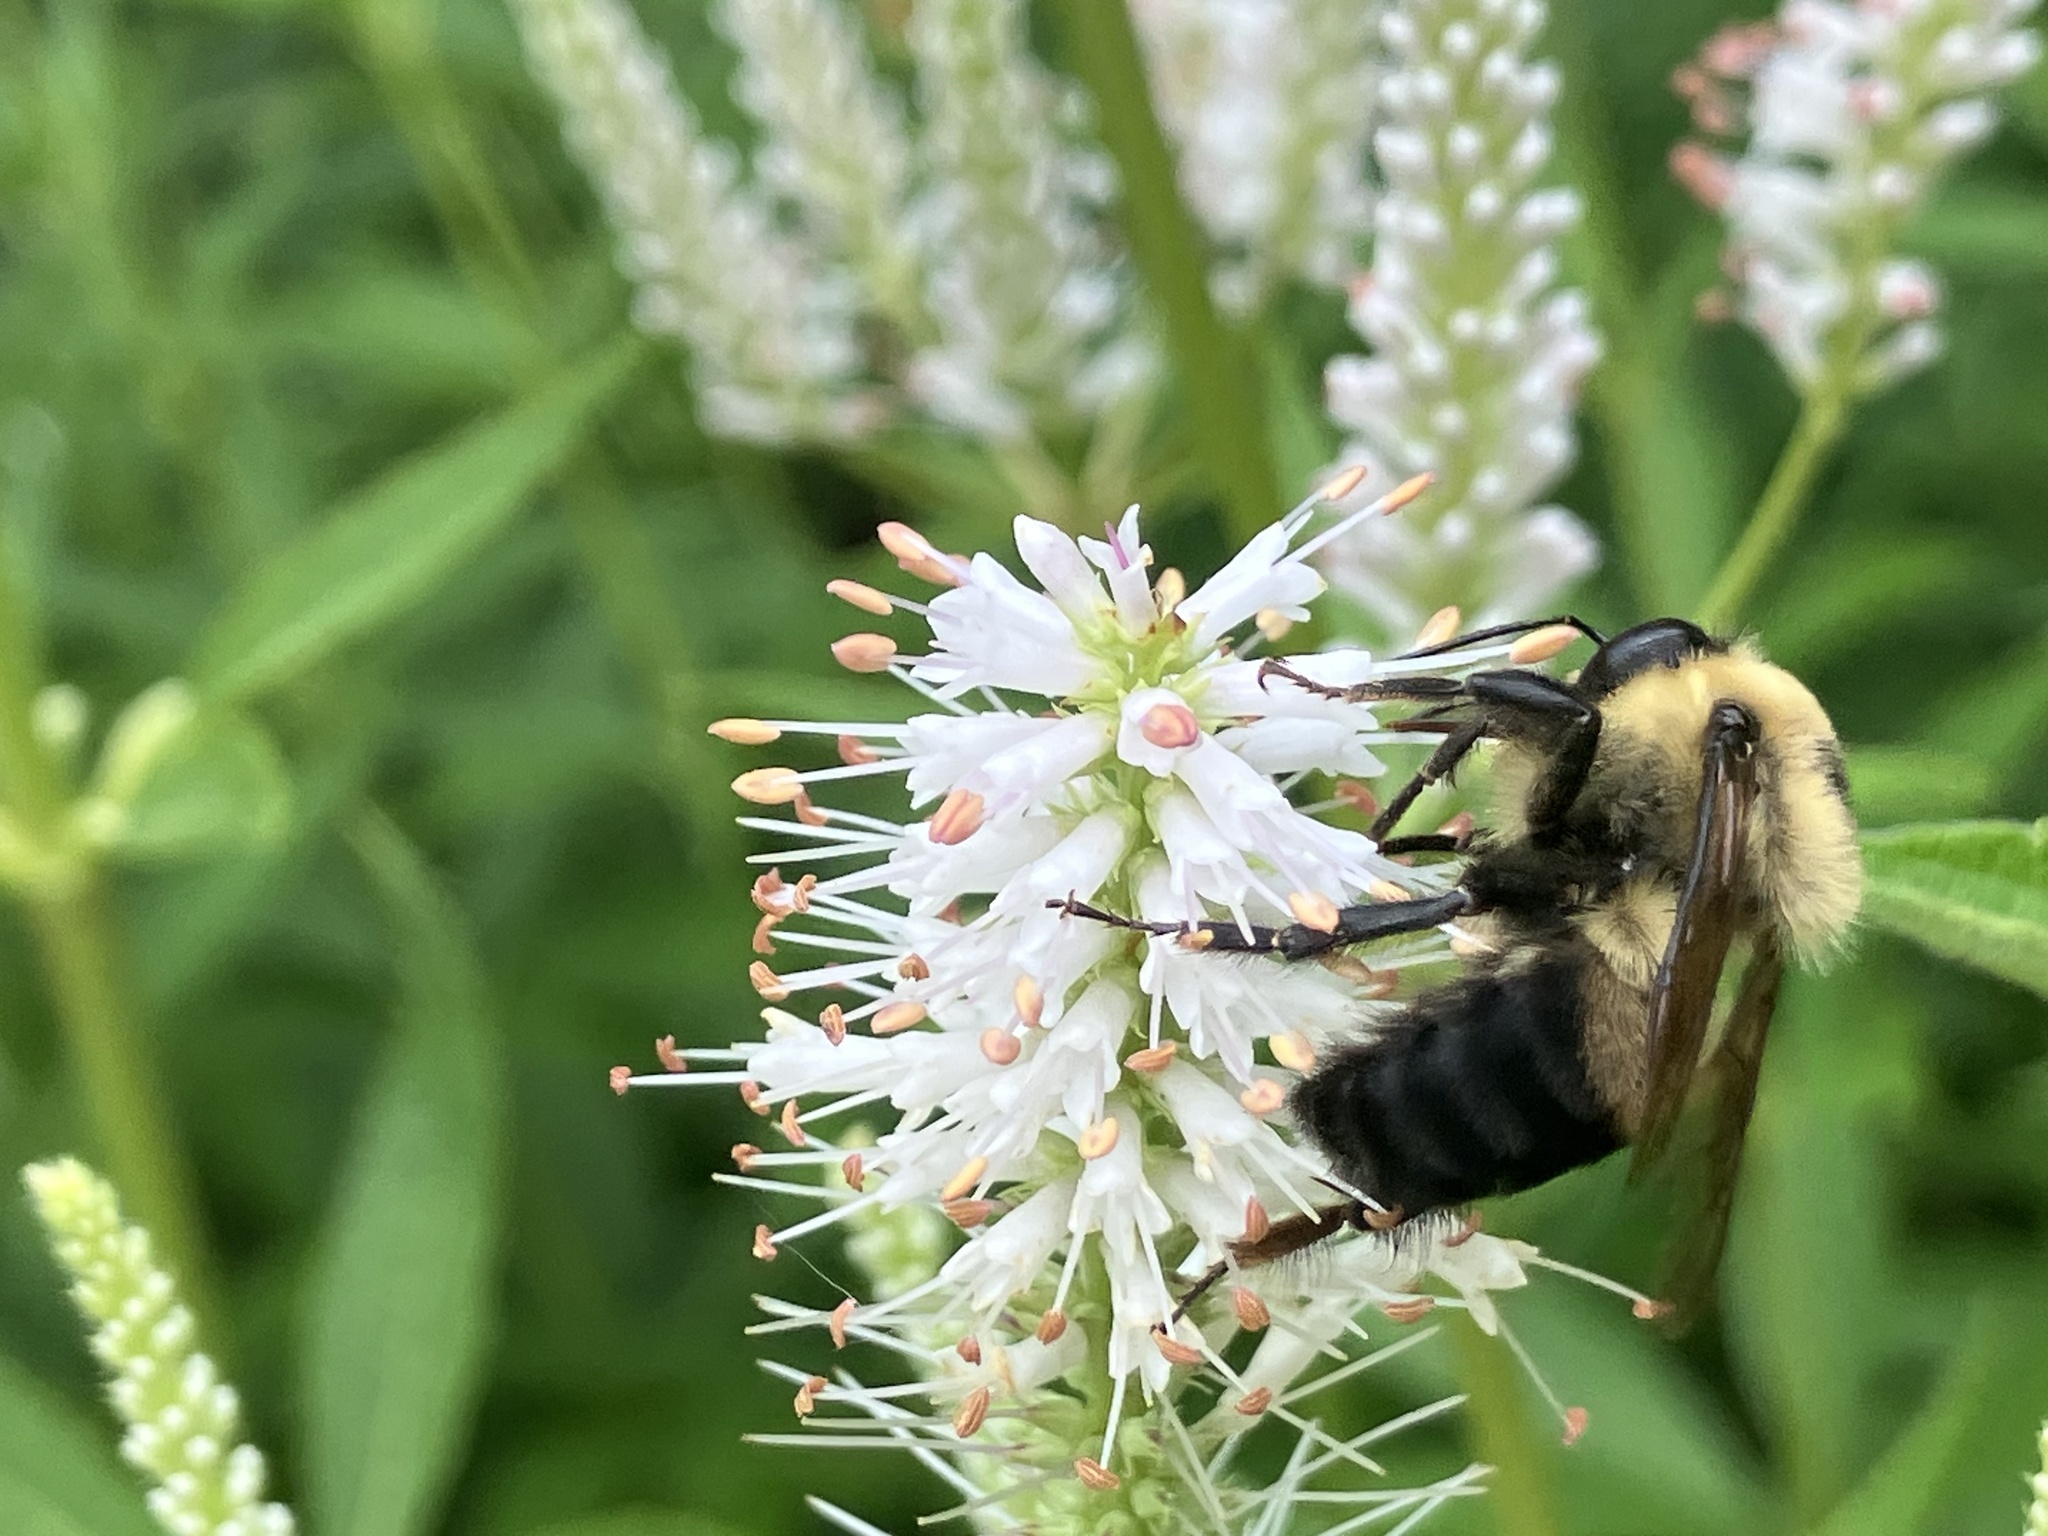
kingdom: Animalia
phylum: Arthropoda
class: Insecta
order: Hymenoptera
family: Apidae
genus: Bombus
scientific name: Bombus griseocollis
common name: Brown-belted bumble bee
